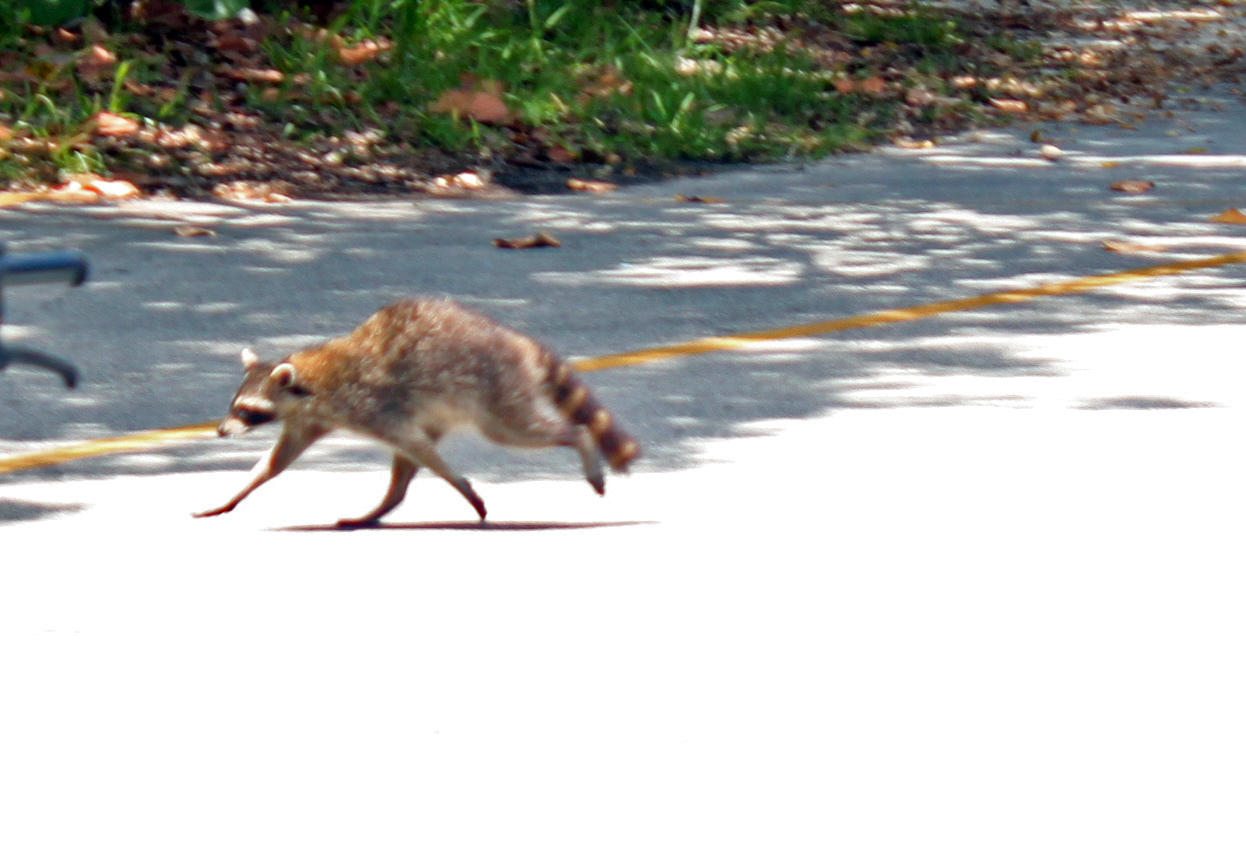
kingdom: Animalia
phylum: Chordata
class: Mammalia
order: Carnivora
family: Procyonidae
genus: Procyon
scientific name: Procyon lotor
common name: Raccoon
